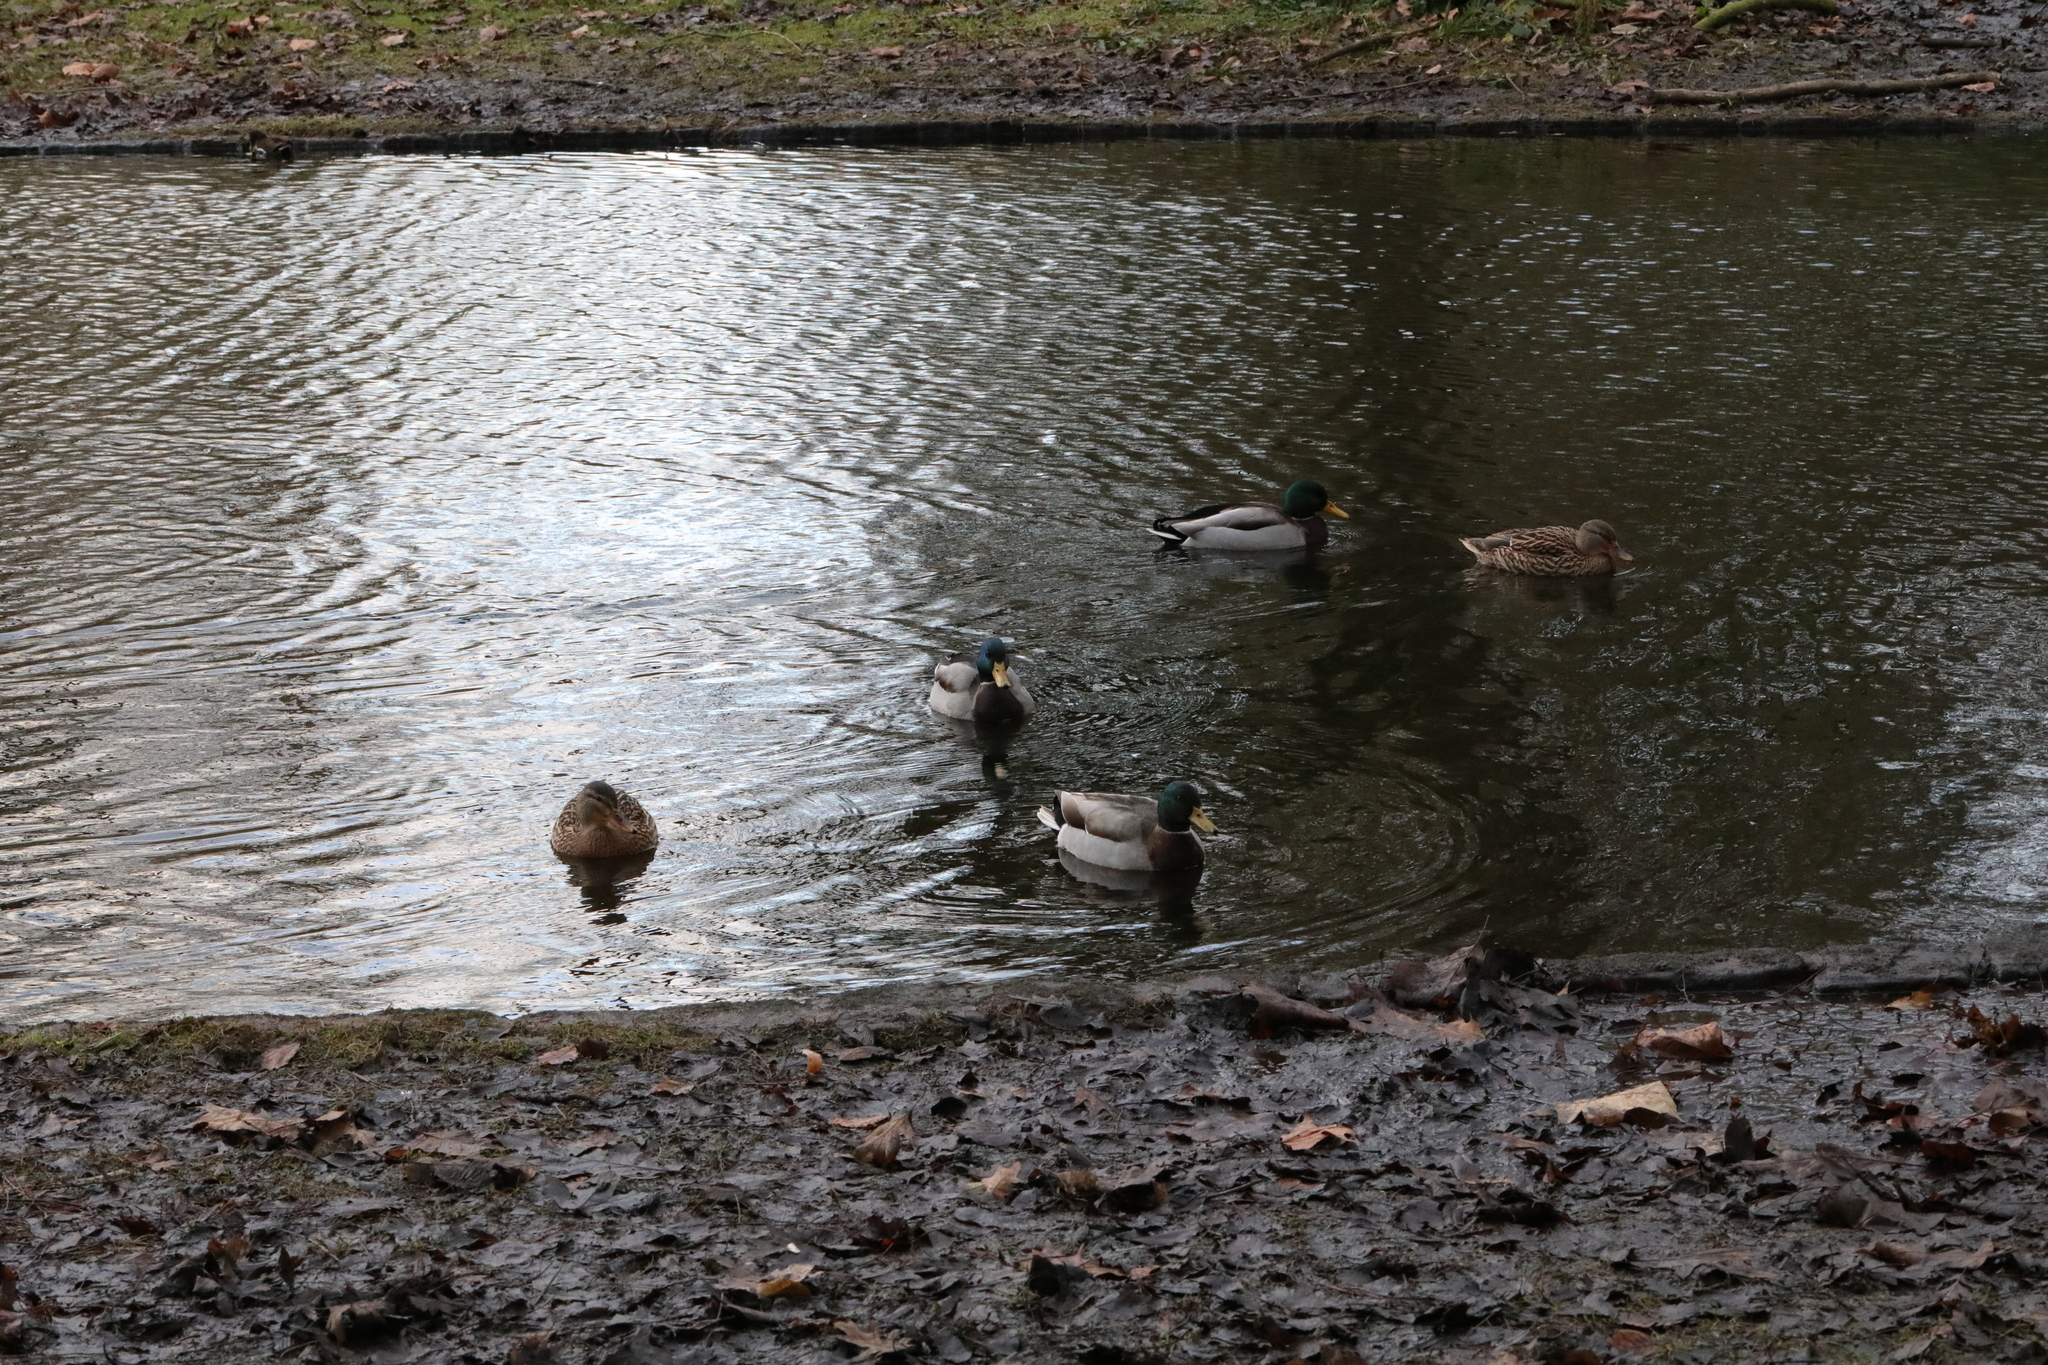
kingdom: Animalia
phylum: Chordata
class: Aves
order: Anseriformes
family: Anatidae
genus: Anas
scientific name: Anas platyrhynchos
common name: Mallard
